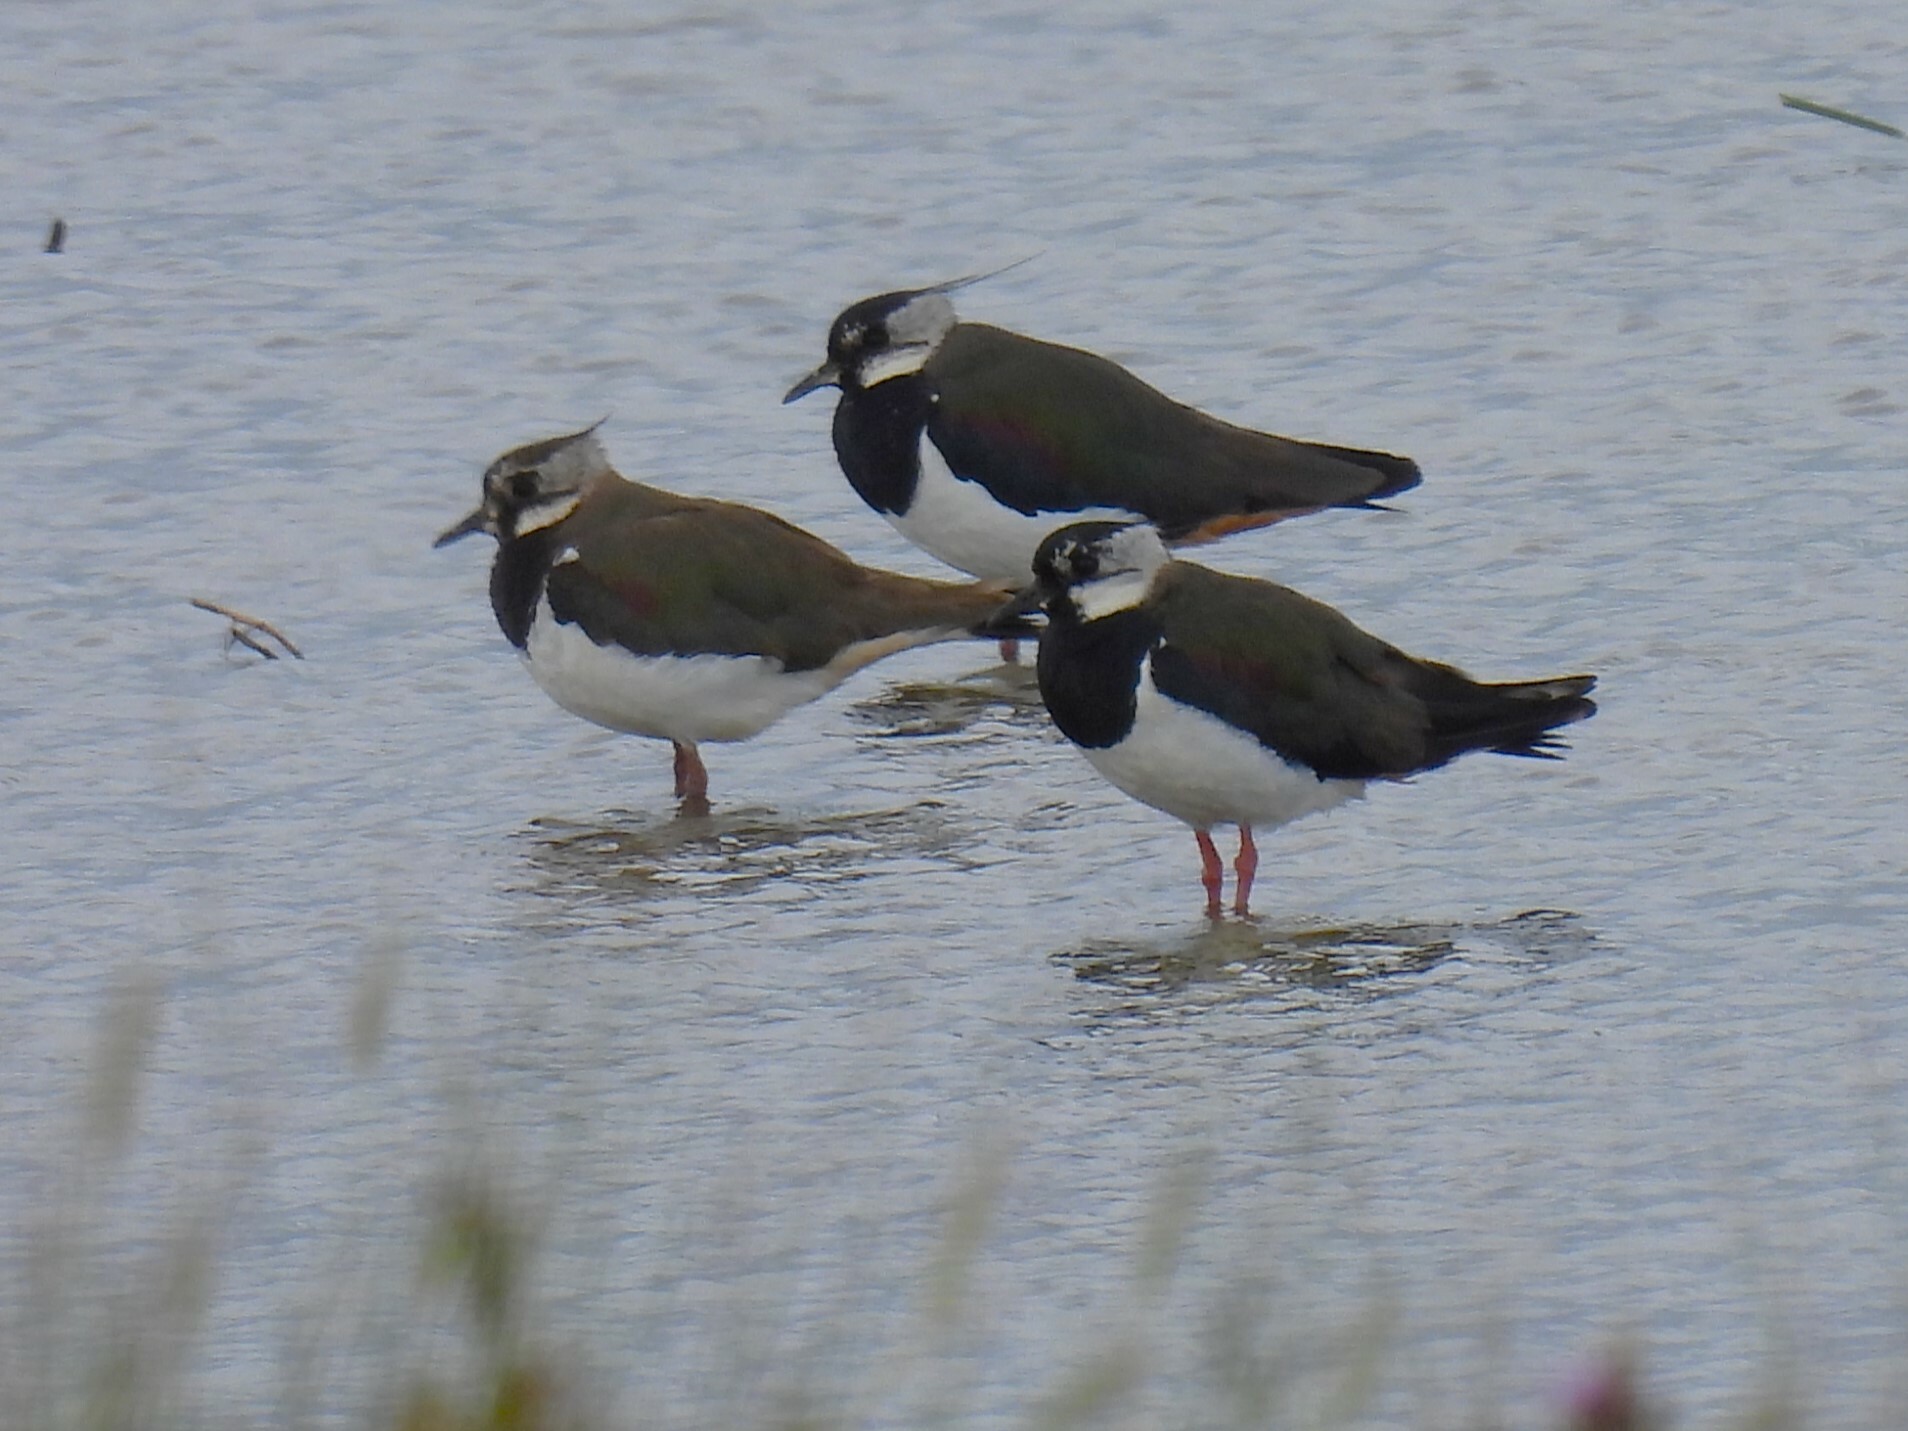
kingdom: Animalia
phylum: Chordata
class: Aves
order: Charadriiformes
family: Charadriidae
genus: Vanellus
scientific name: Vanellus vanellus
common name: Northern lapwing
